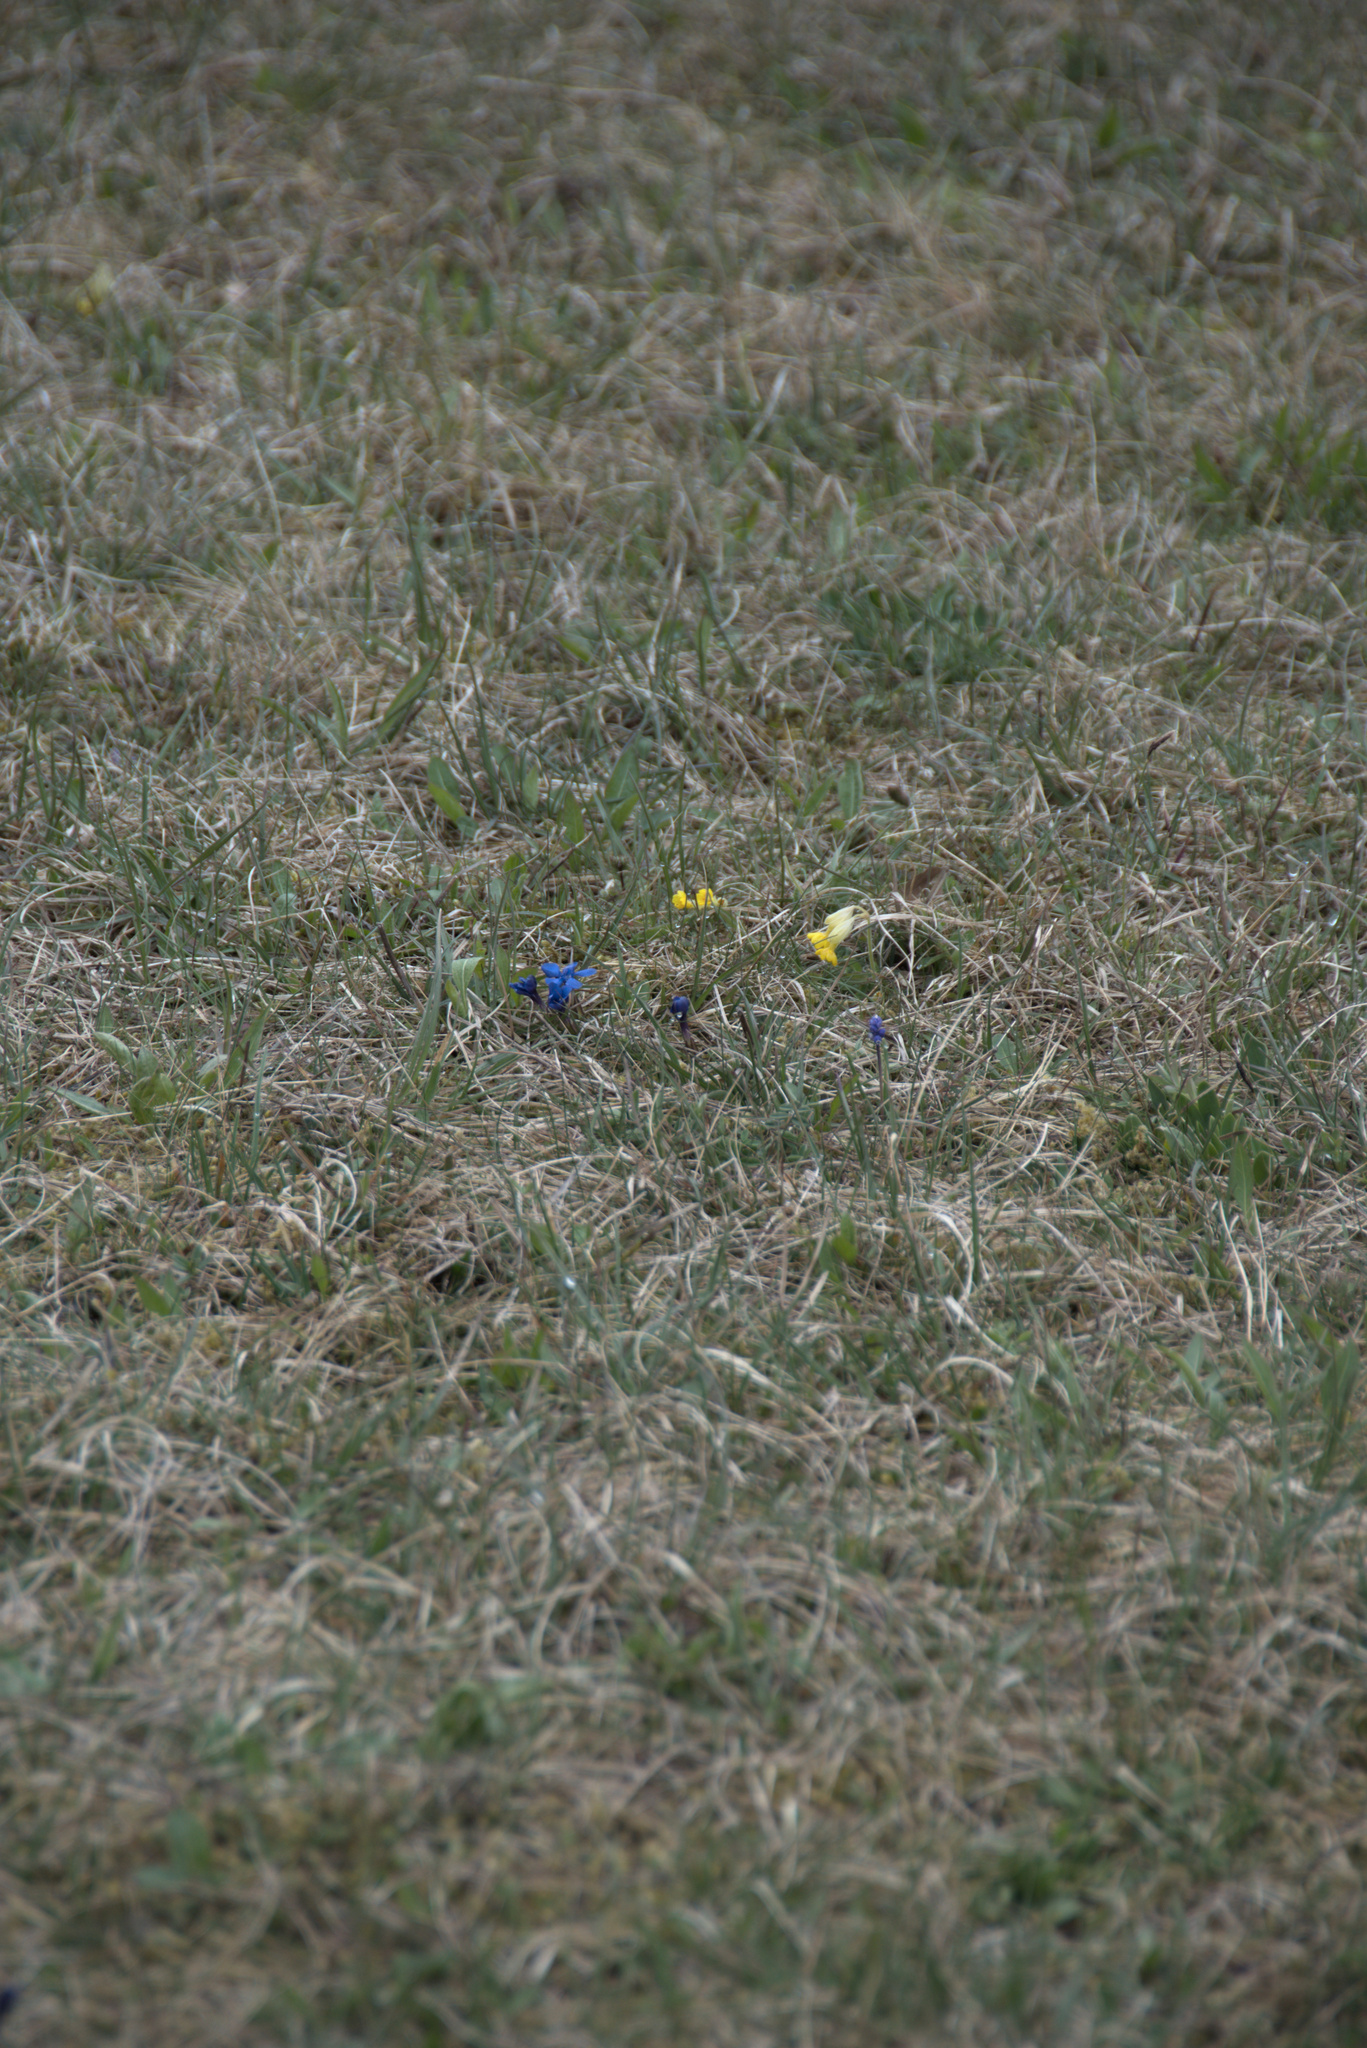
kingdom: Plantae
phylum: Tracheophyta
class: Magnoliopsida
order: Gentianales
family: Gentianaceae
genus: Gentiana
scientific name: Gentiana verna
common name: Spring gentian
